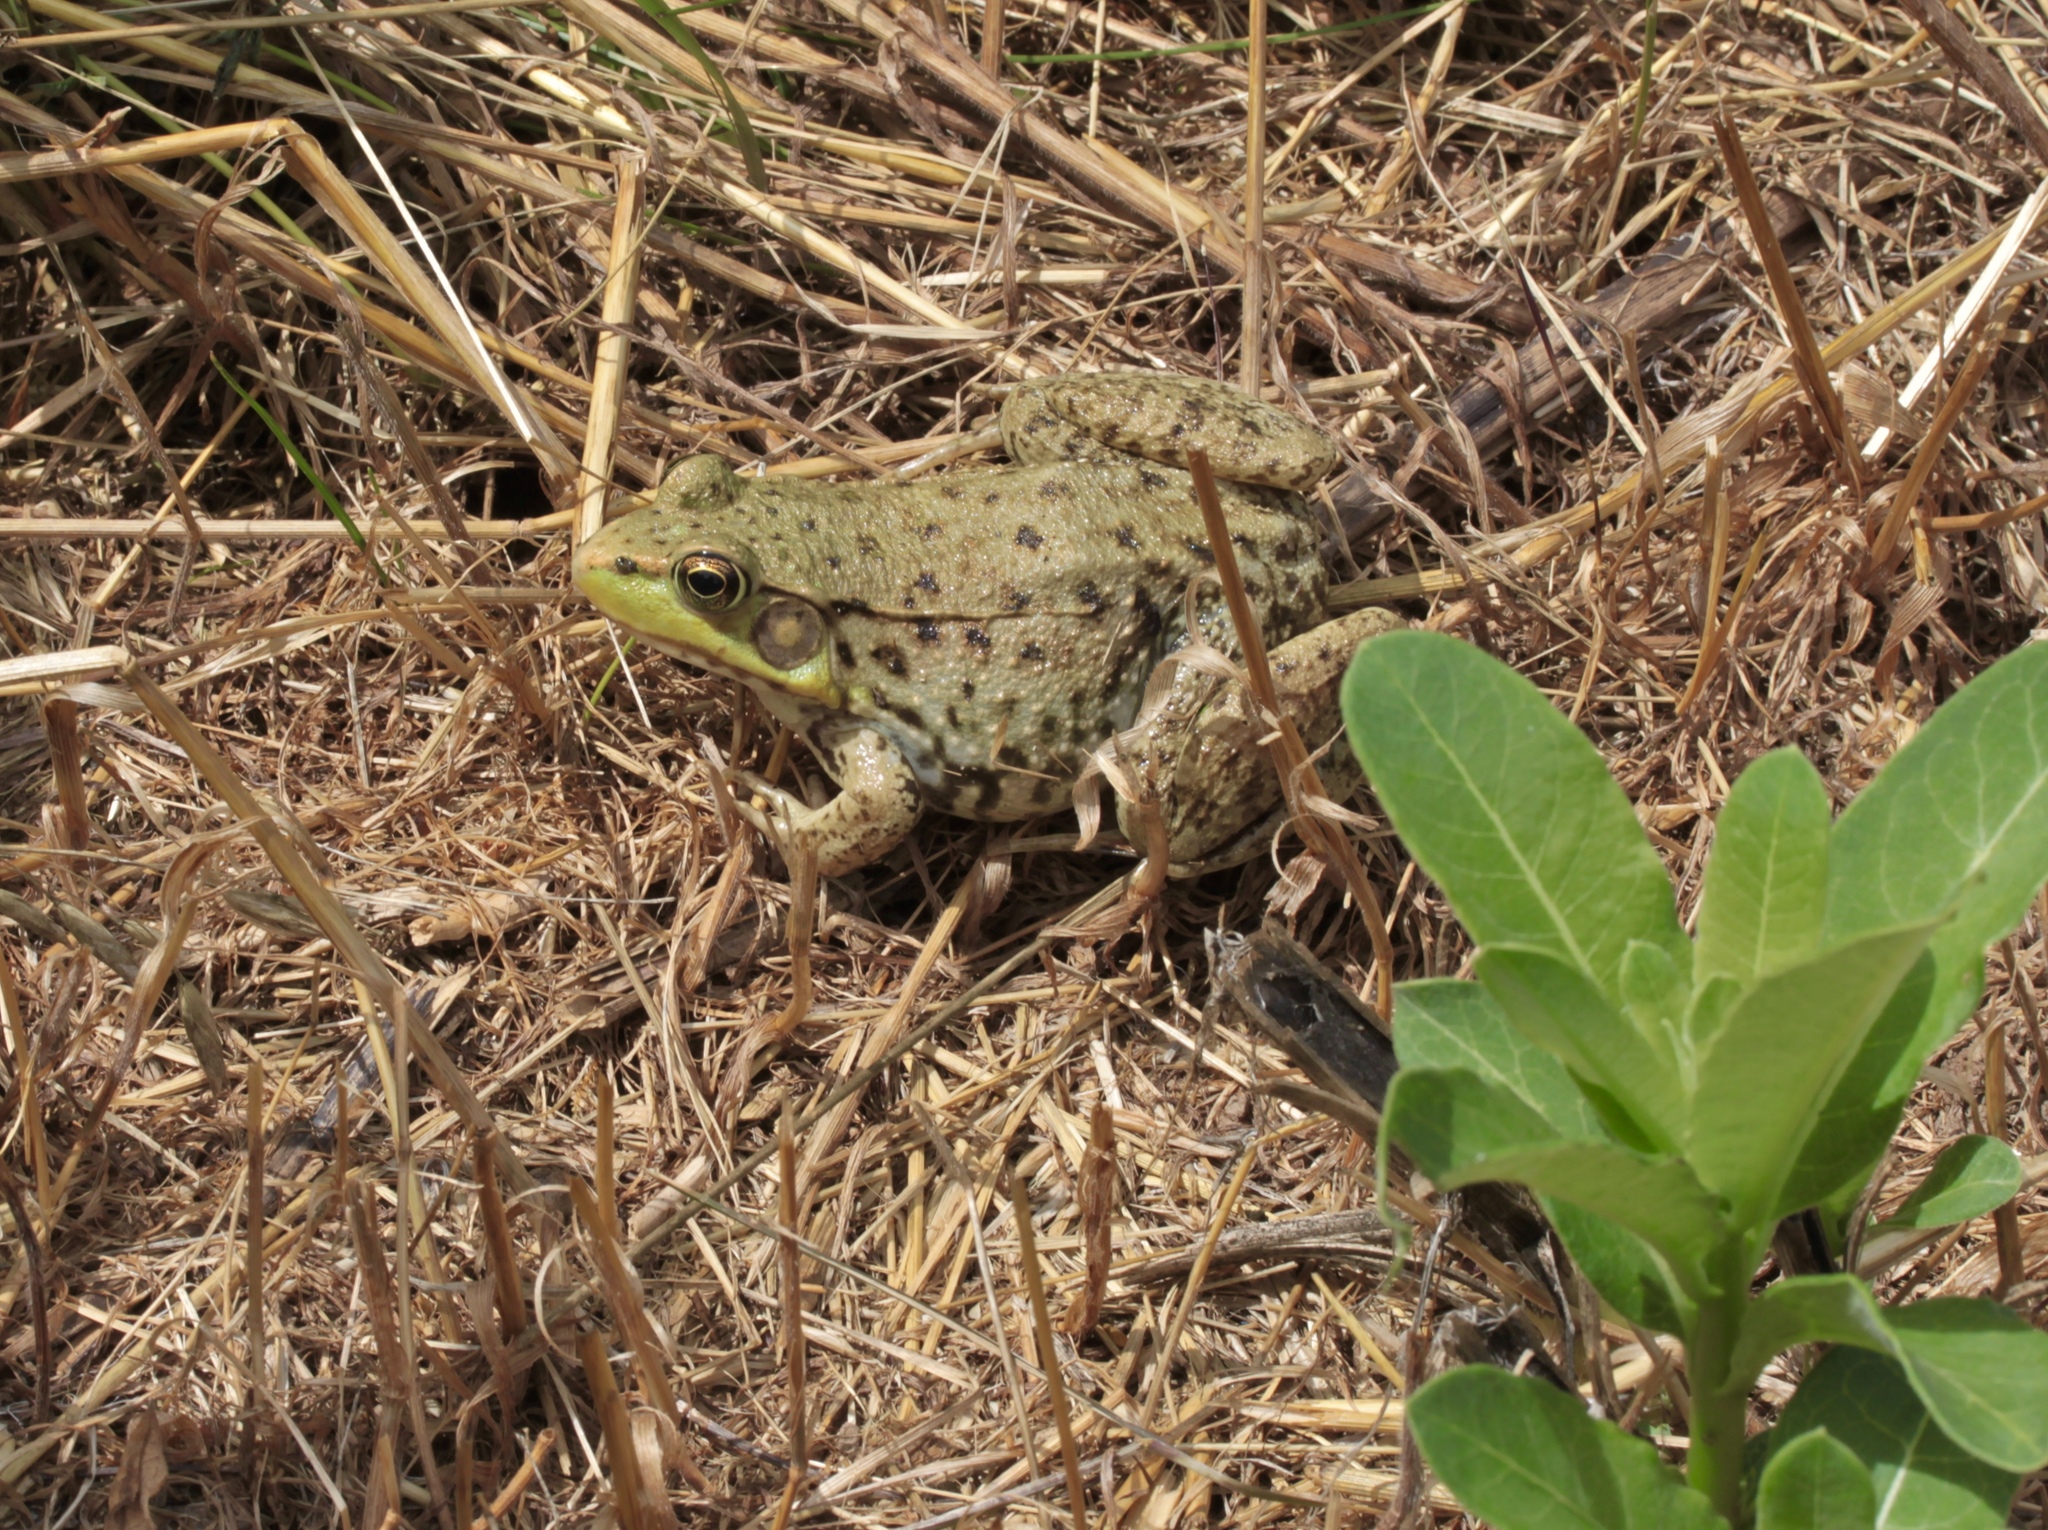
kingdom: Animalia
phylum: Chordata
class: Amphibia
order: Anura
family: Ranidae
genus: Lithobates
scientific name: Lithobates clamitans
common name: Green frog
